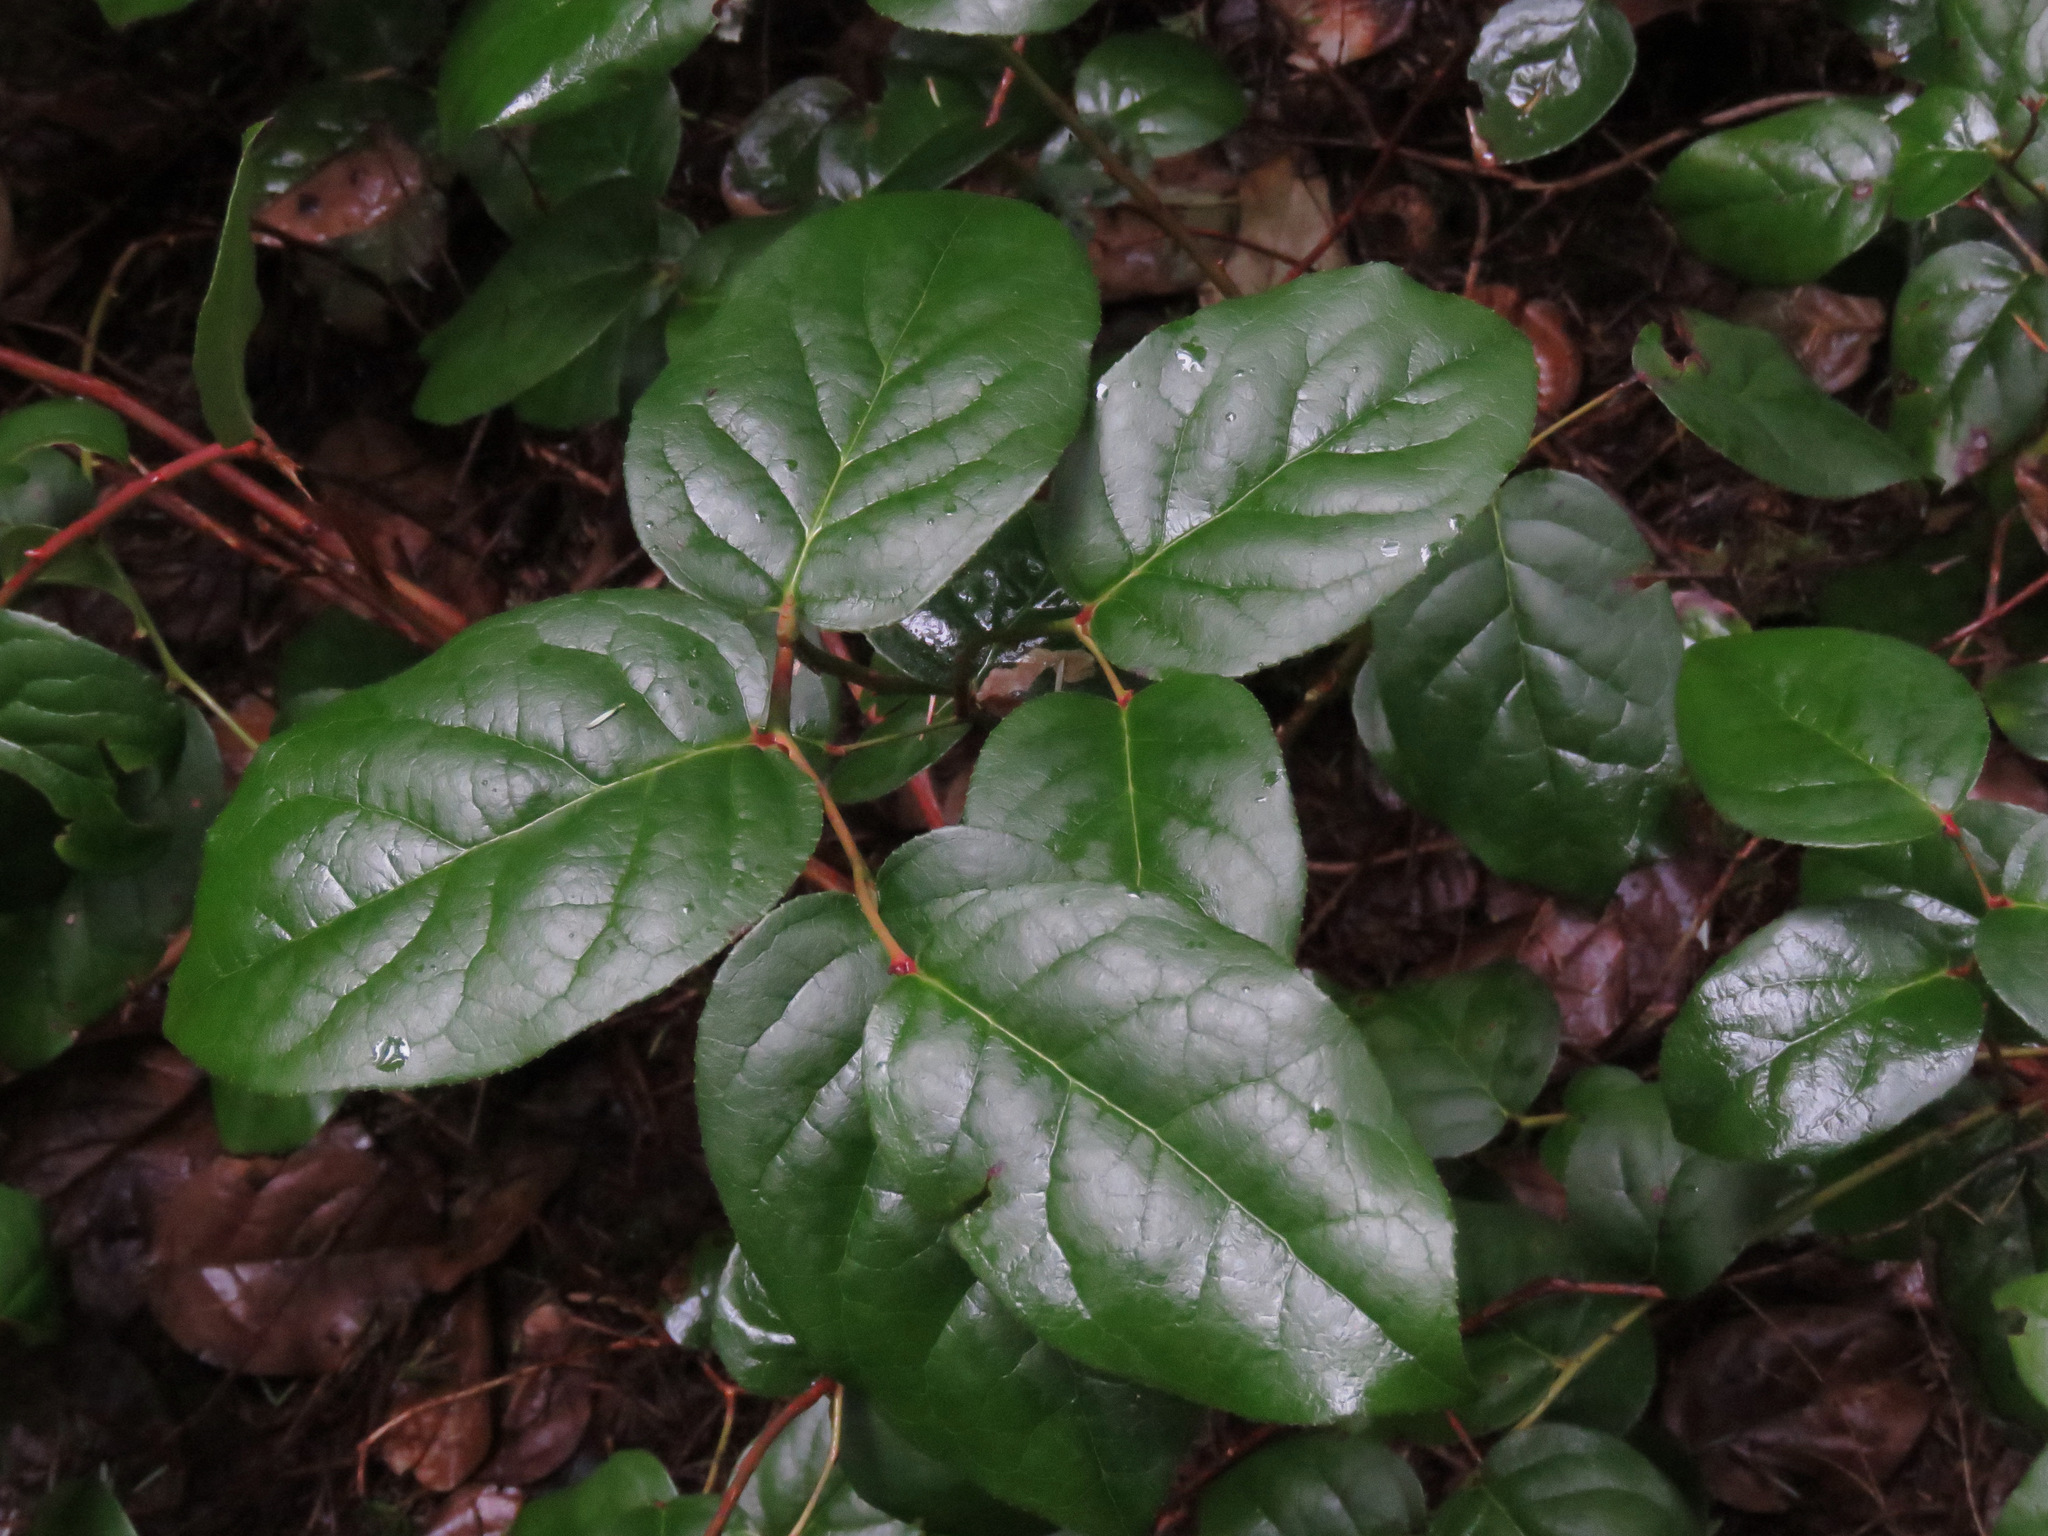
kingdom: Plantae
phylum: Tracheophyta
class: Magnoliopsida
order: Ericales
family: Ericaceae
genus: Gaultheria
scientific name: Gaultheria shallon
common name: Shallon
